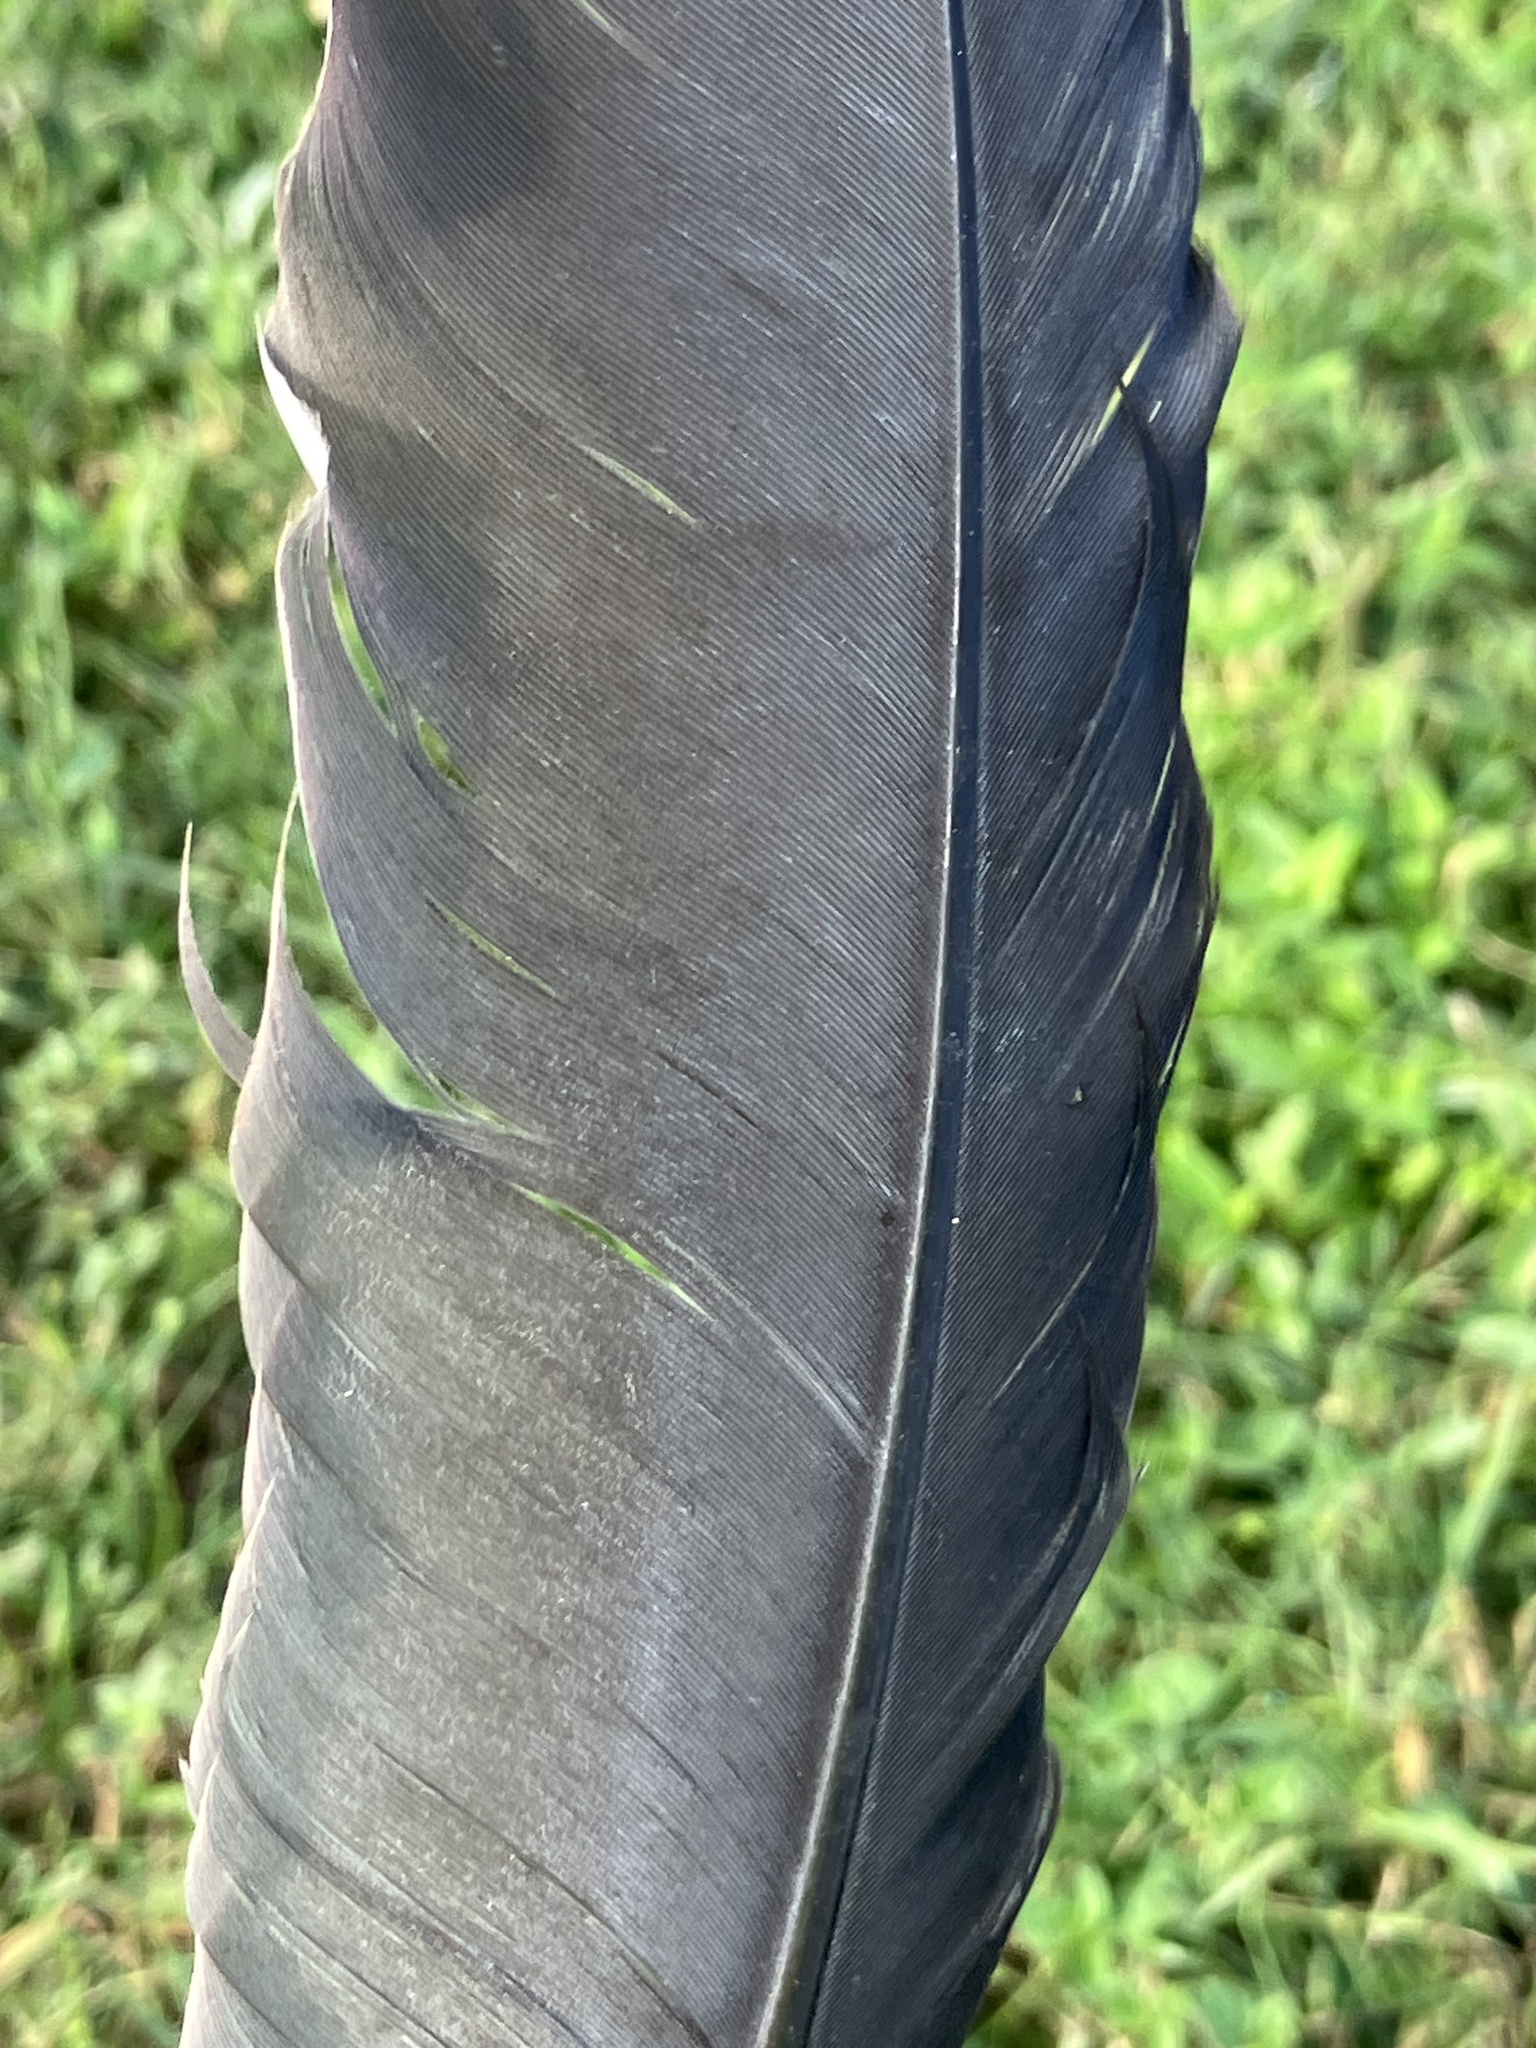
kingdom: Animalia
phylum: Chordata
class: Aves
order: Pelecaniformes
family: Ardeidae
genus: Ardea
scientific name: Ardea herodias
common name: Great blue heron
